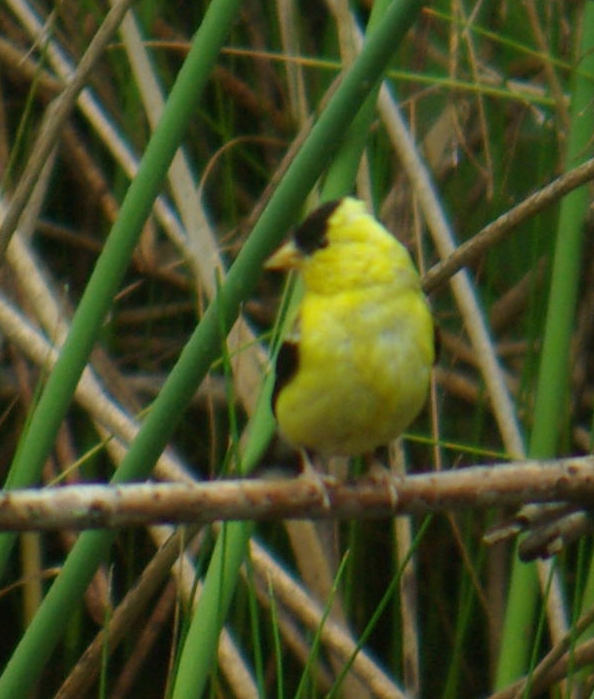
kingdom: Animalia
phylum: Chordata
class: Aves
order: Passeriformes
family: Fringillidae
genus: Spinus
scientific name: Spinus tristis
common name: American goldfinch
